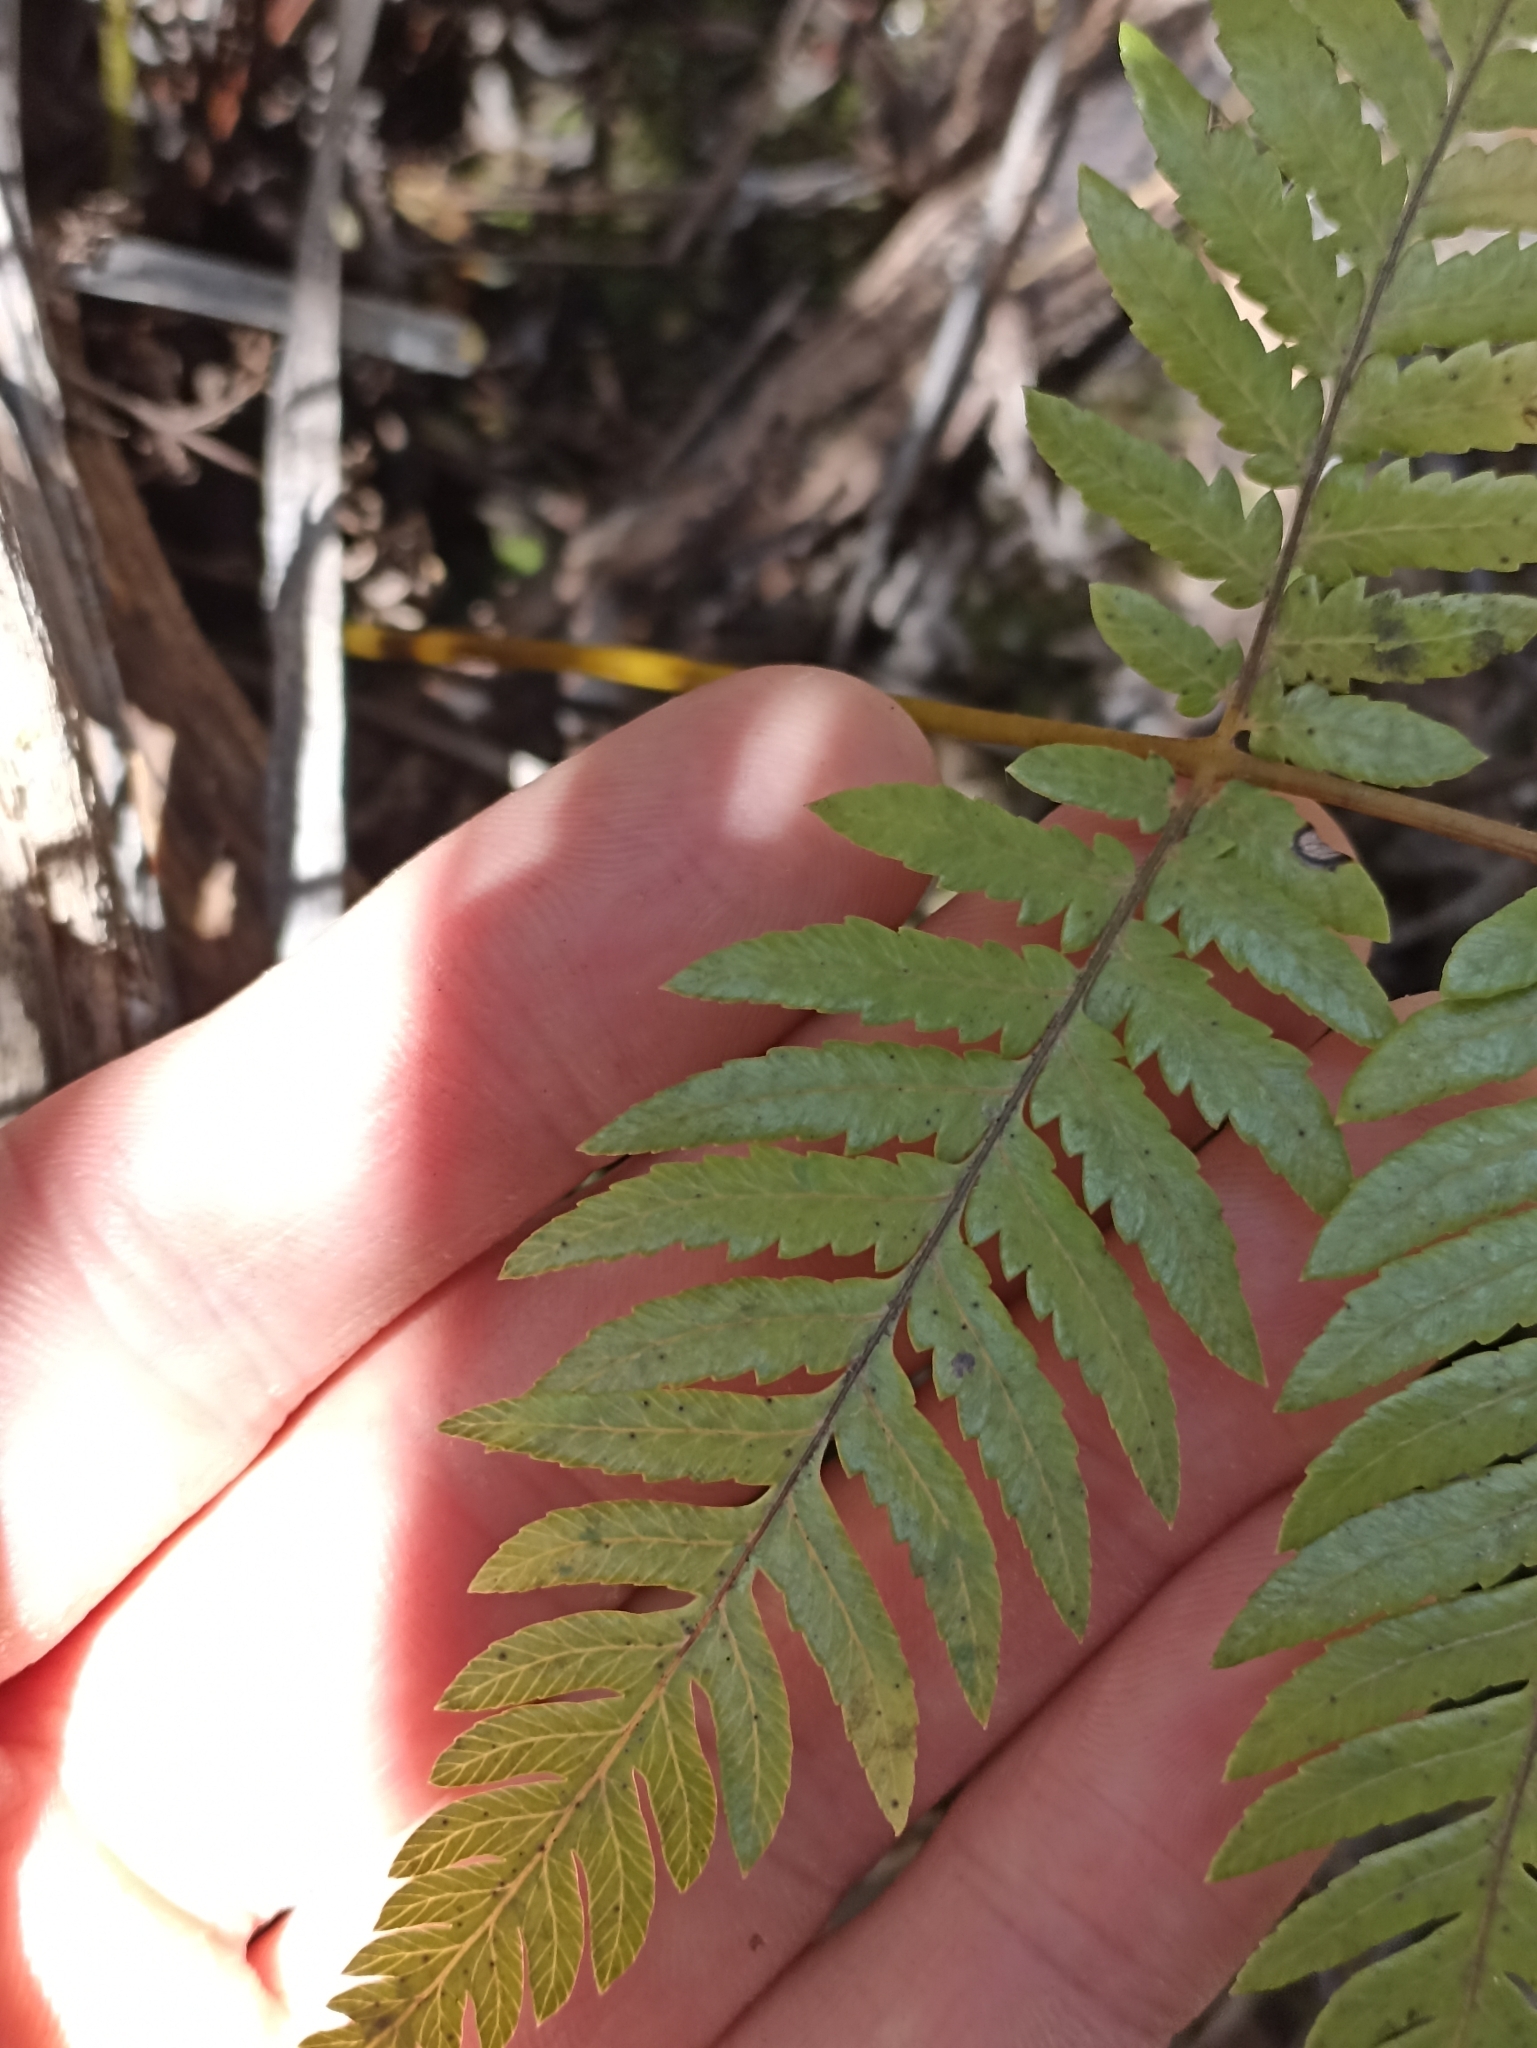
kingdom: Plantae
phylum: Tracheophyta
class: Polypodiopsida
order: Cyatheales
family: Cyatheaceae
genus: Alsophila
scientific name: Alsophila dealbata
